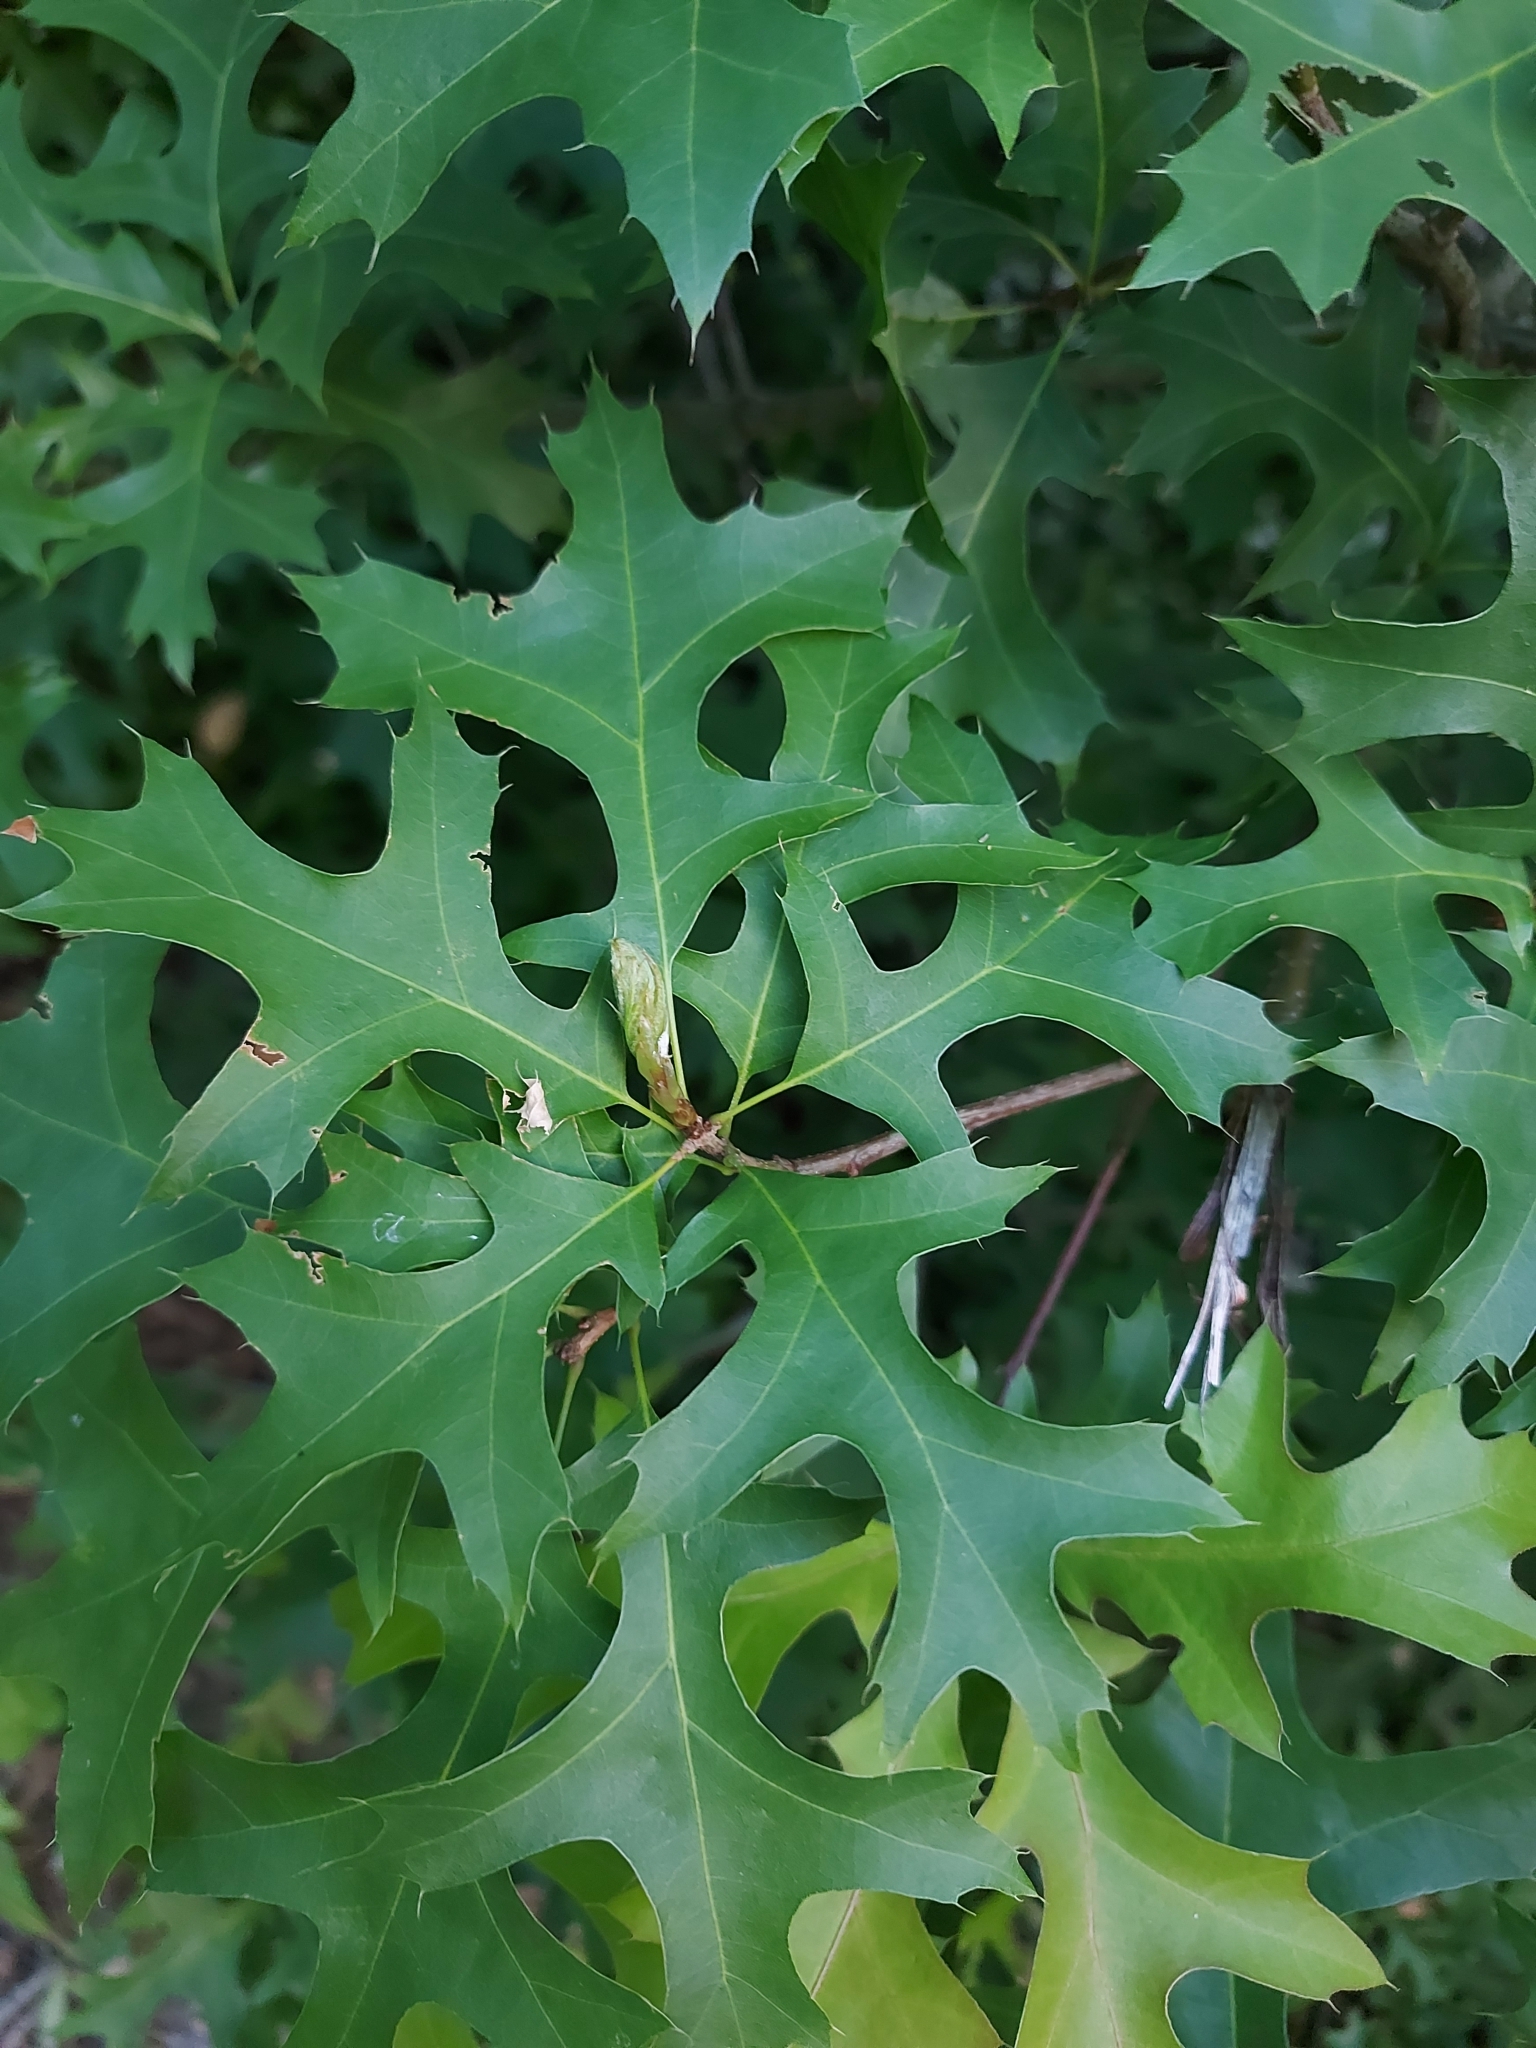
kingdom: Plantae
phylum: Tracheophyta
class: Magnoliopsida
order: Fagales
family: Fagaceae
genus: Quercus
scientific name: Quercus palustris
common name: Pin oak
